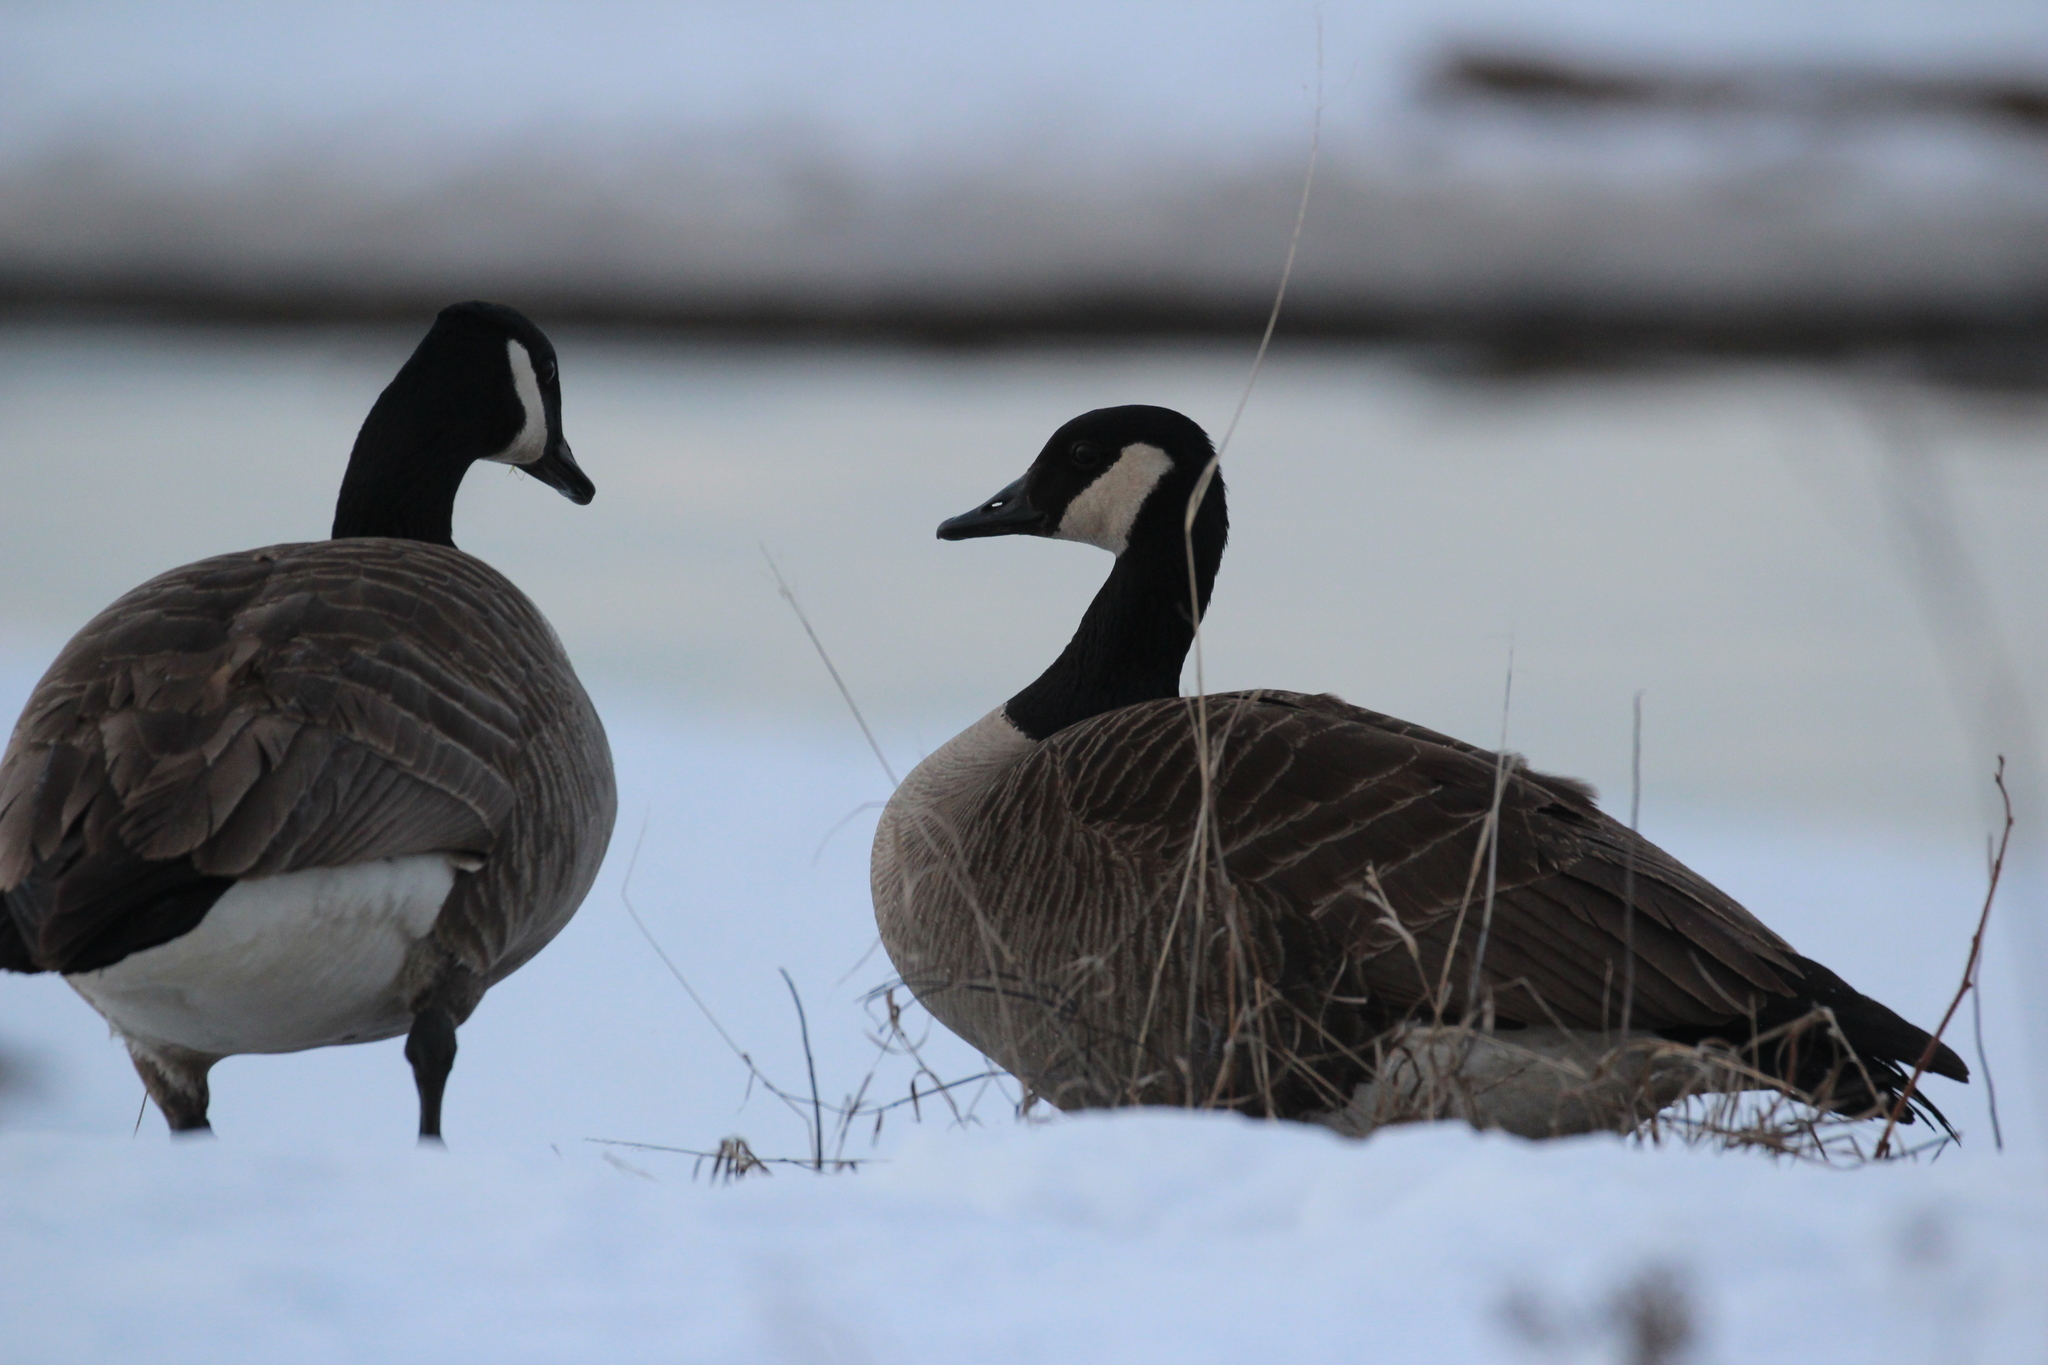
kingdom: Animalia
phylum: Chordata
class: Aves
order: Anseriformes
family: Anatidae
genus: Branta
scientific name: Branta canadensis
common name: Canada goose
